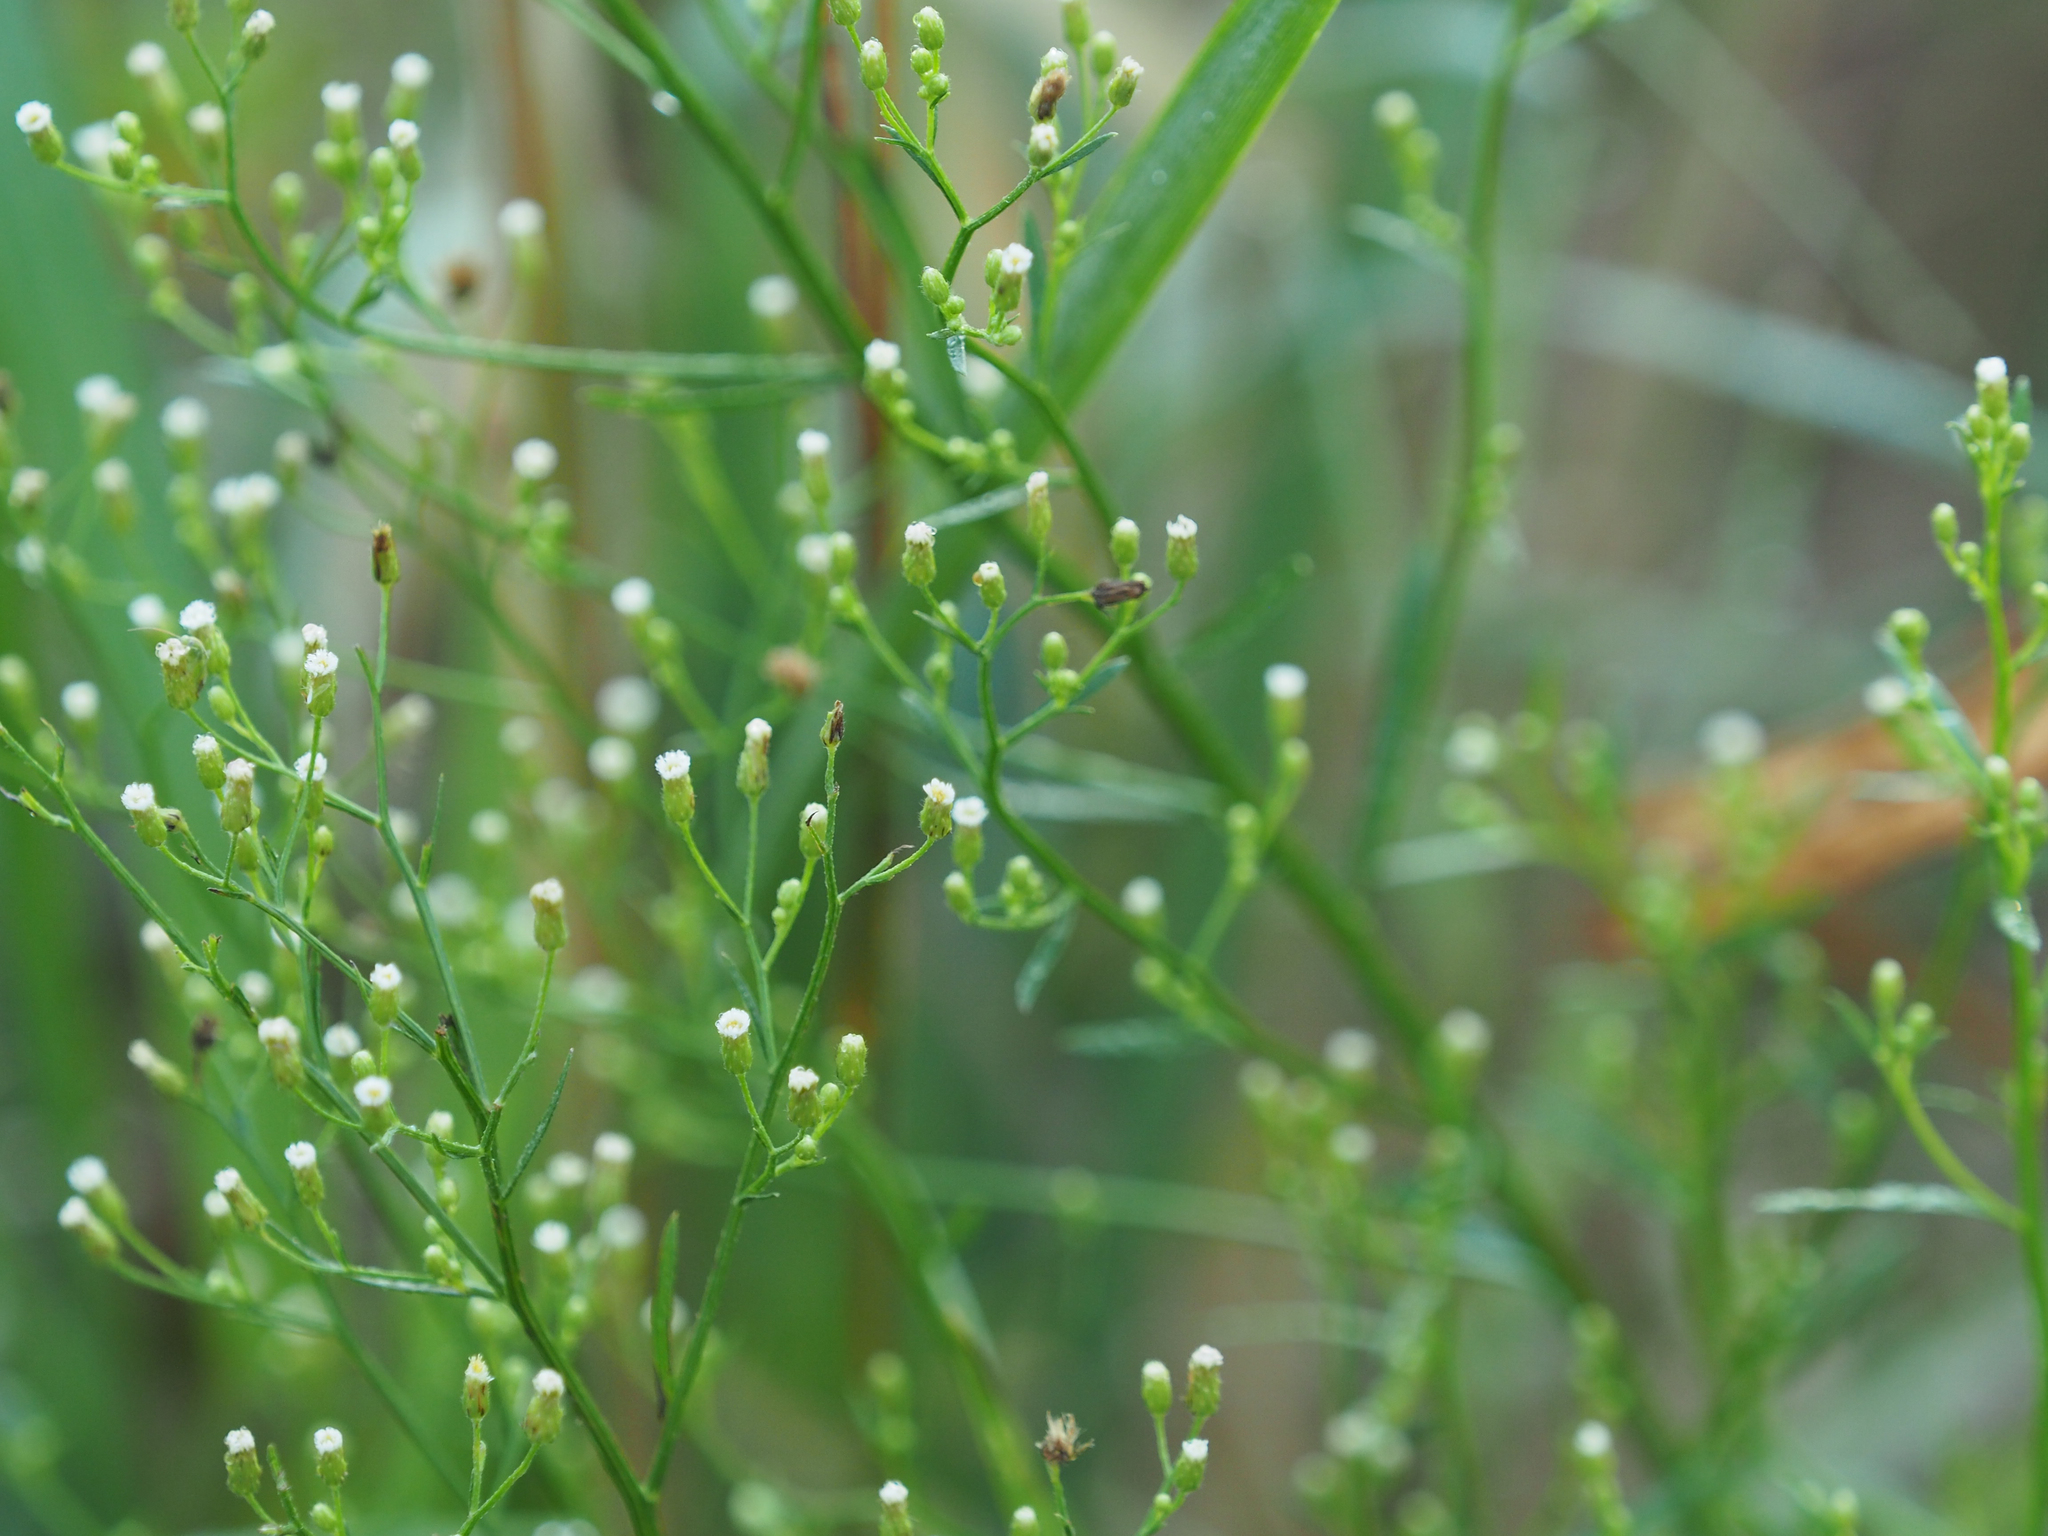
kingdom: Plantae
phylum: Tracheophyta
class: Magnoliopsida
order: Asterales
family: Asteraceae
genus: Erigeron
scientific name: Erigeron canadensis
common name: Canadian fleabane
